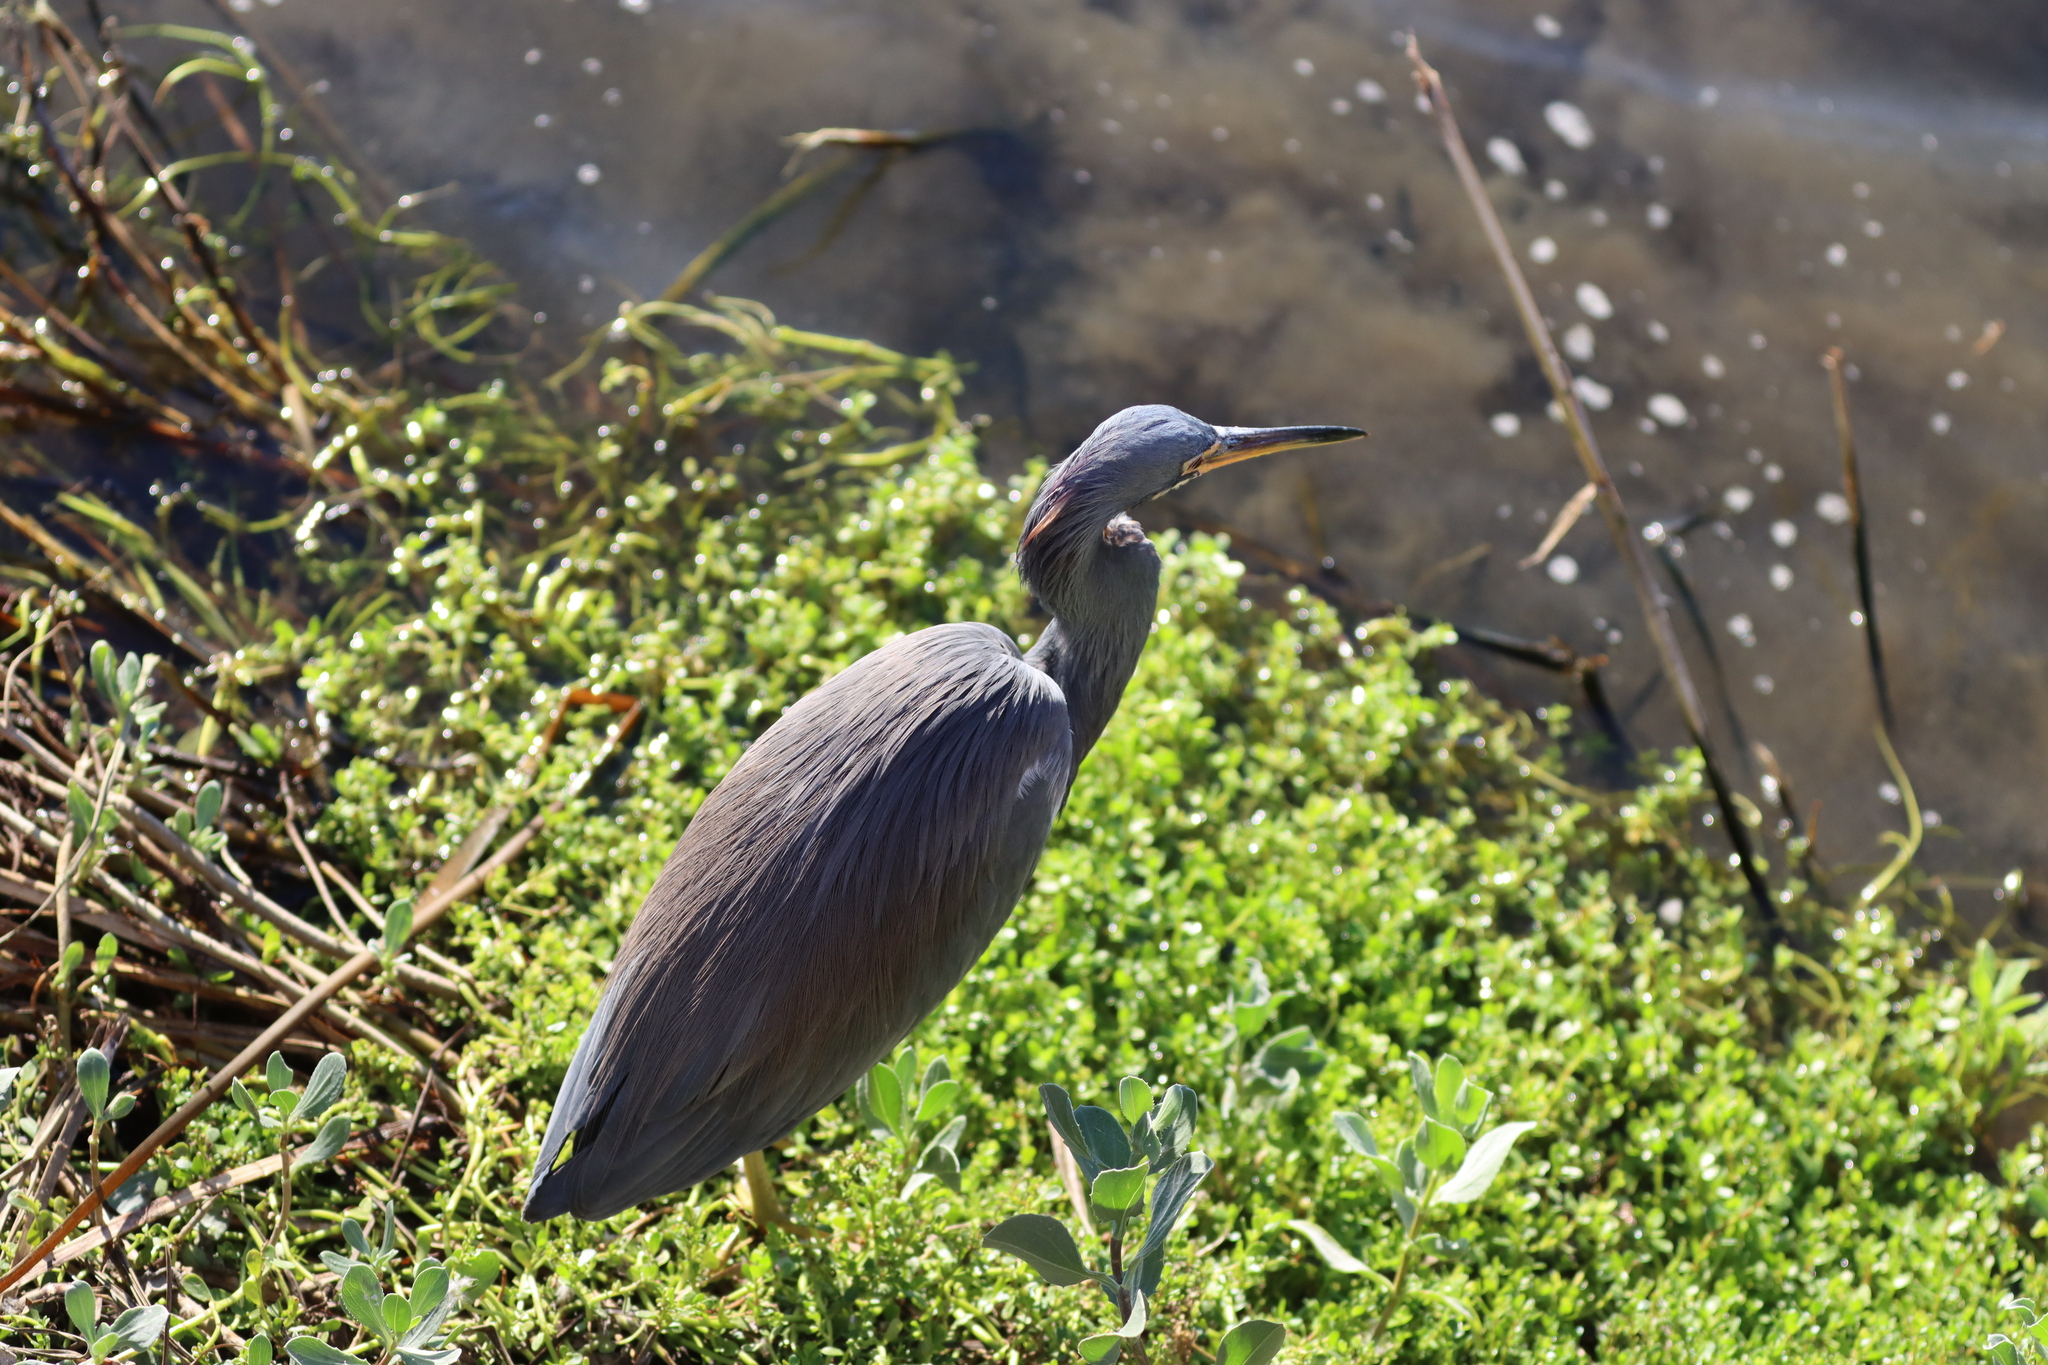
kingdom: Animalia
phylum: Chordata
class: Aves
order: Pelecaniformes
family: Ardeidae
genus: Egretta
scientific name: Egretta tricolor
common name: Tricolored heron
